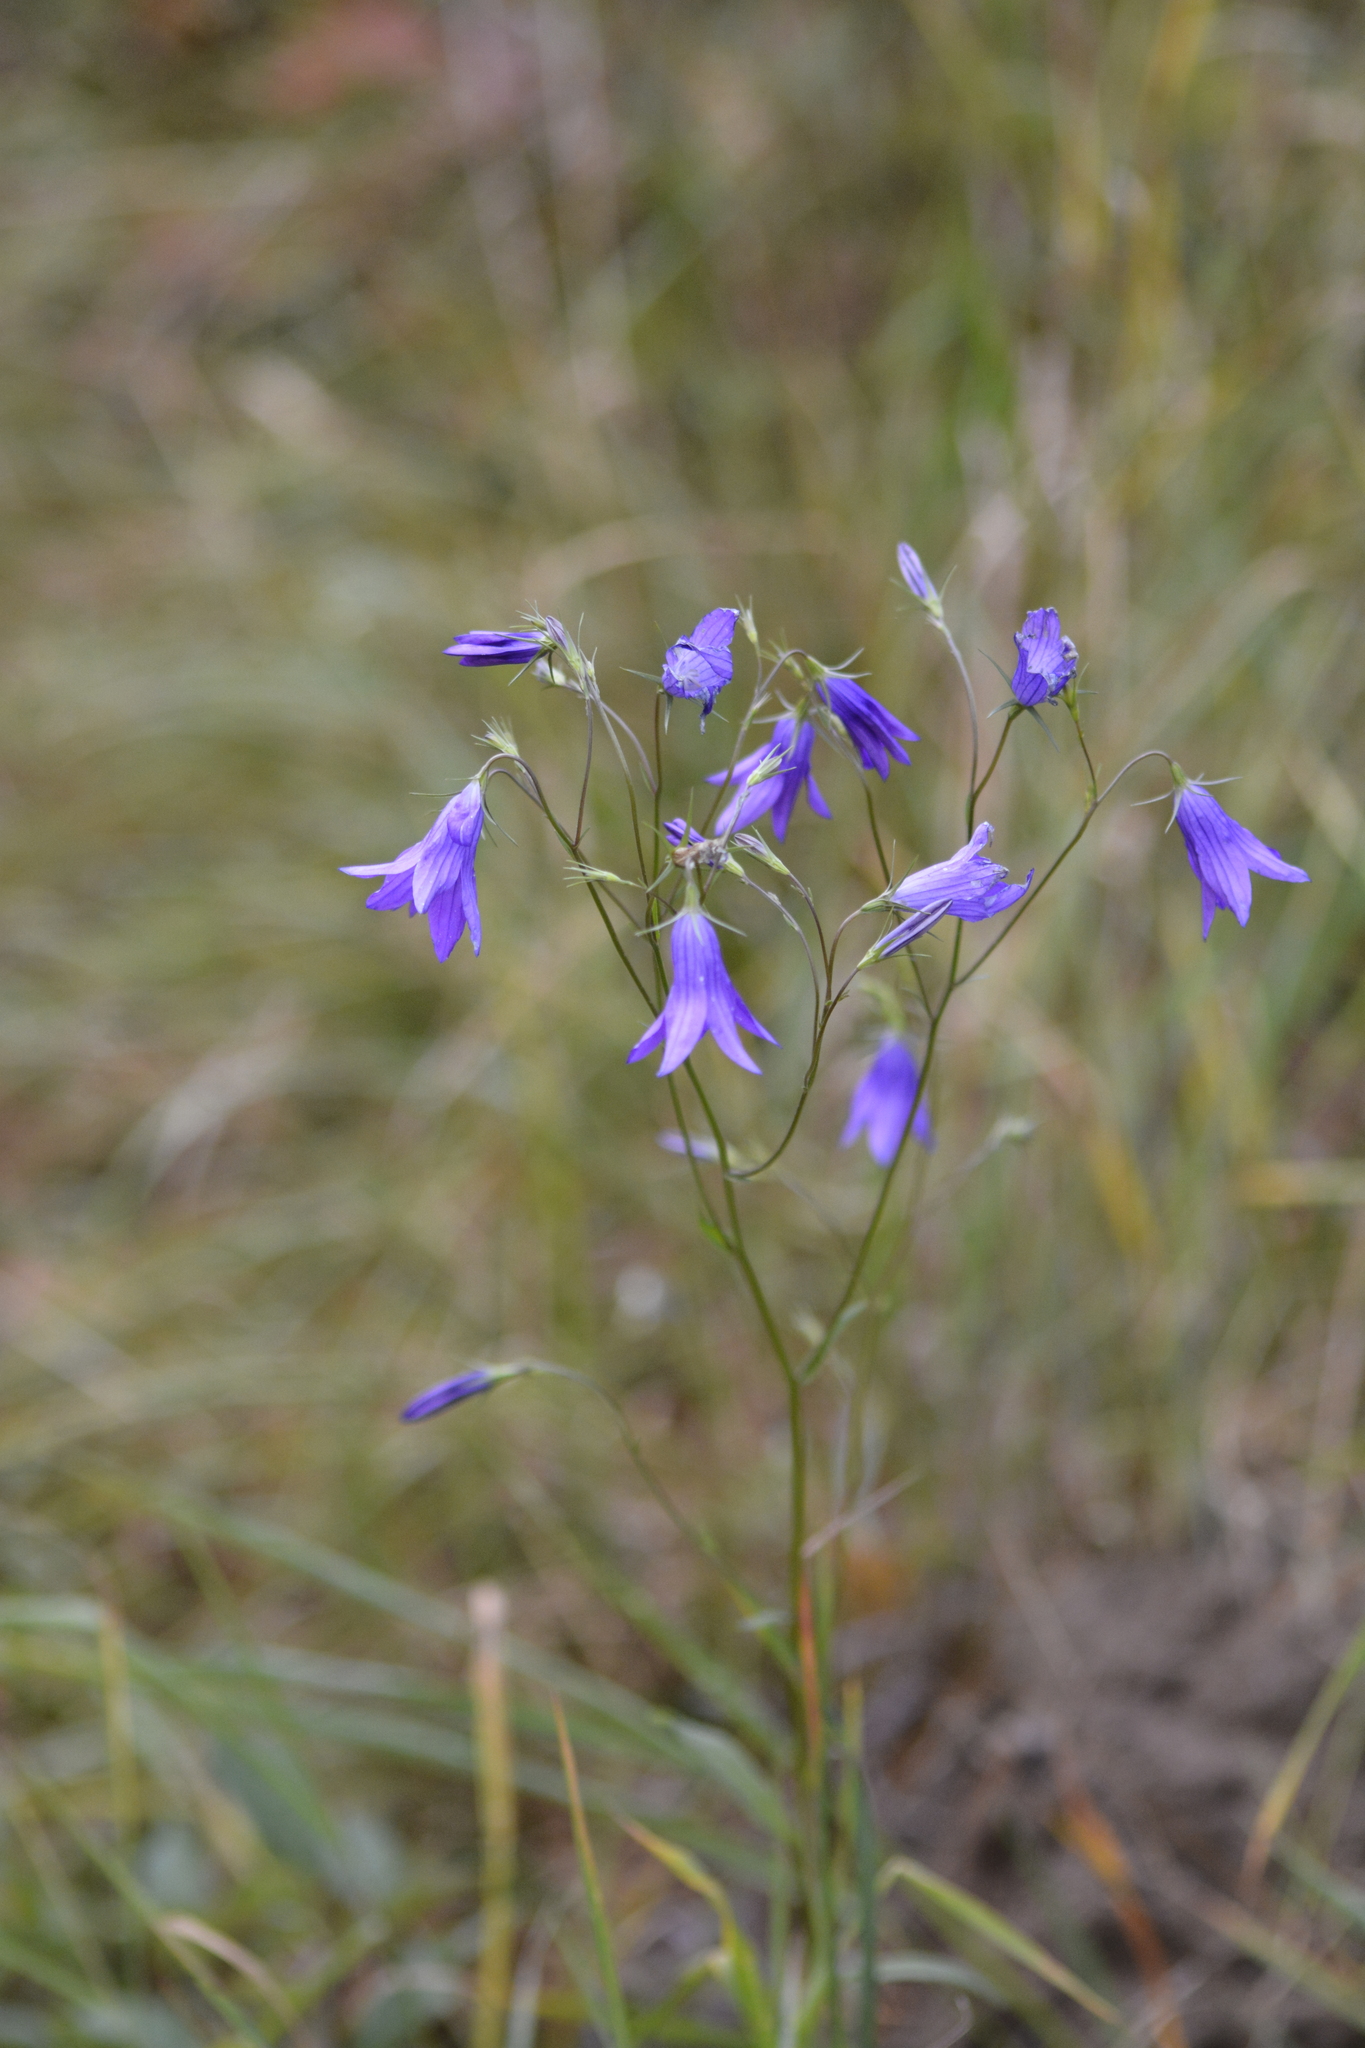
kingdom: Plantae
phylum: Tracheophyta
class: Magnoliopsida
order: Asterales
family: Campanulaceae
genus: Campanula
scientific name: Campanula rotundifolia
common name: Harebell
